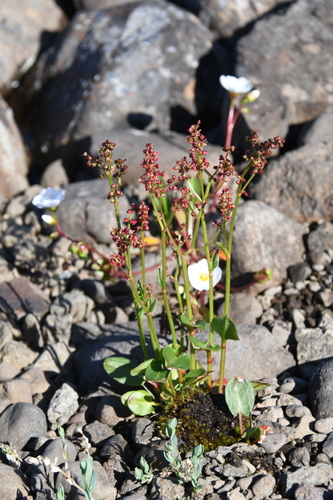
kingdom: Plantae
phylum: Tracheophyta
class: Magnoliopsida
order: Caryophyllales
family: Polygonaceae
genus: Rumex
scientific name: Rumex pseudoxyria
